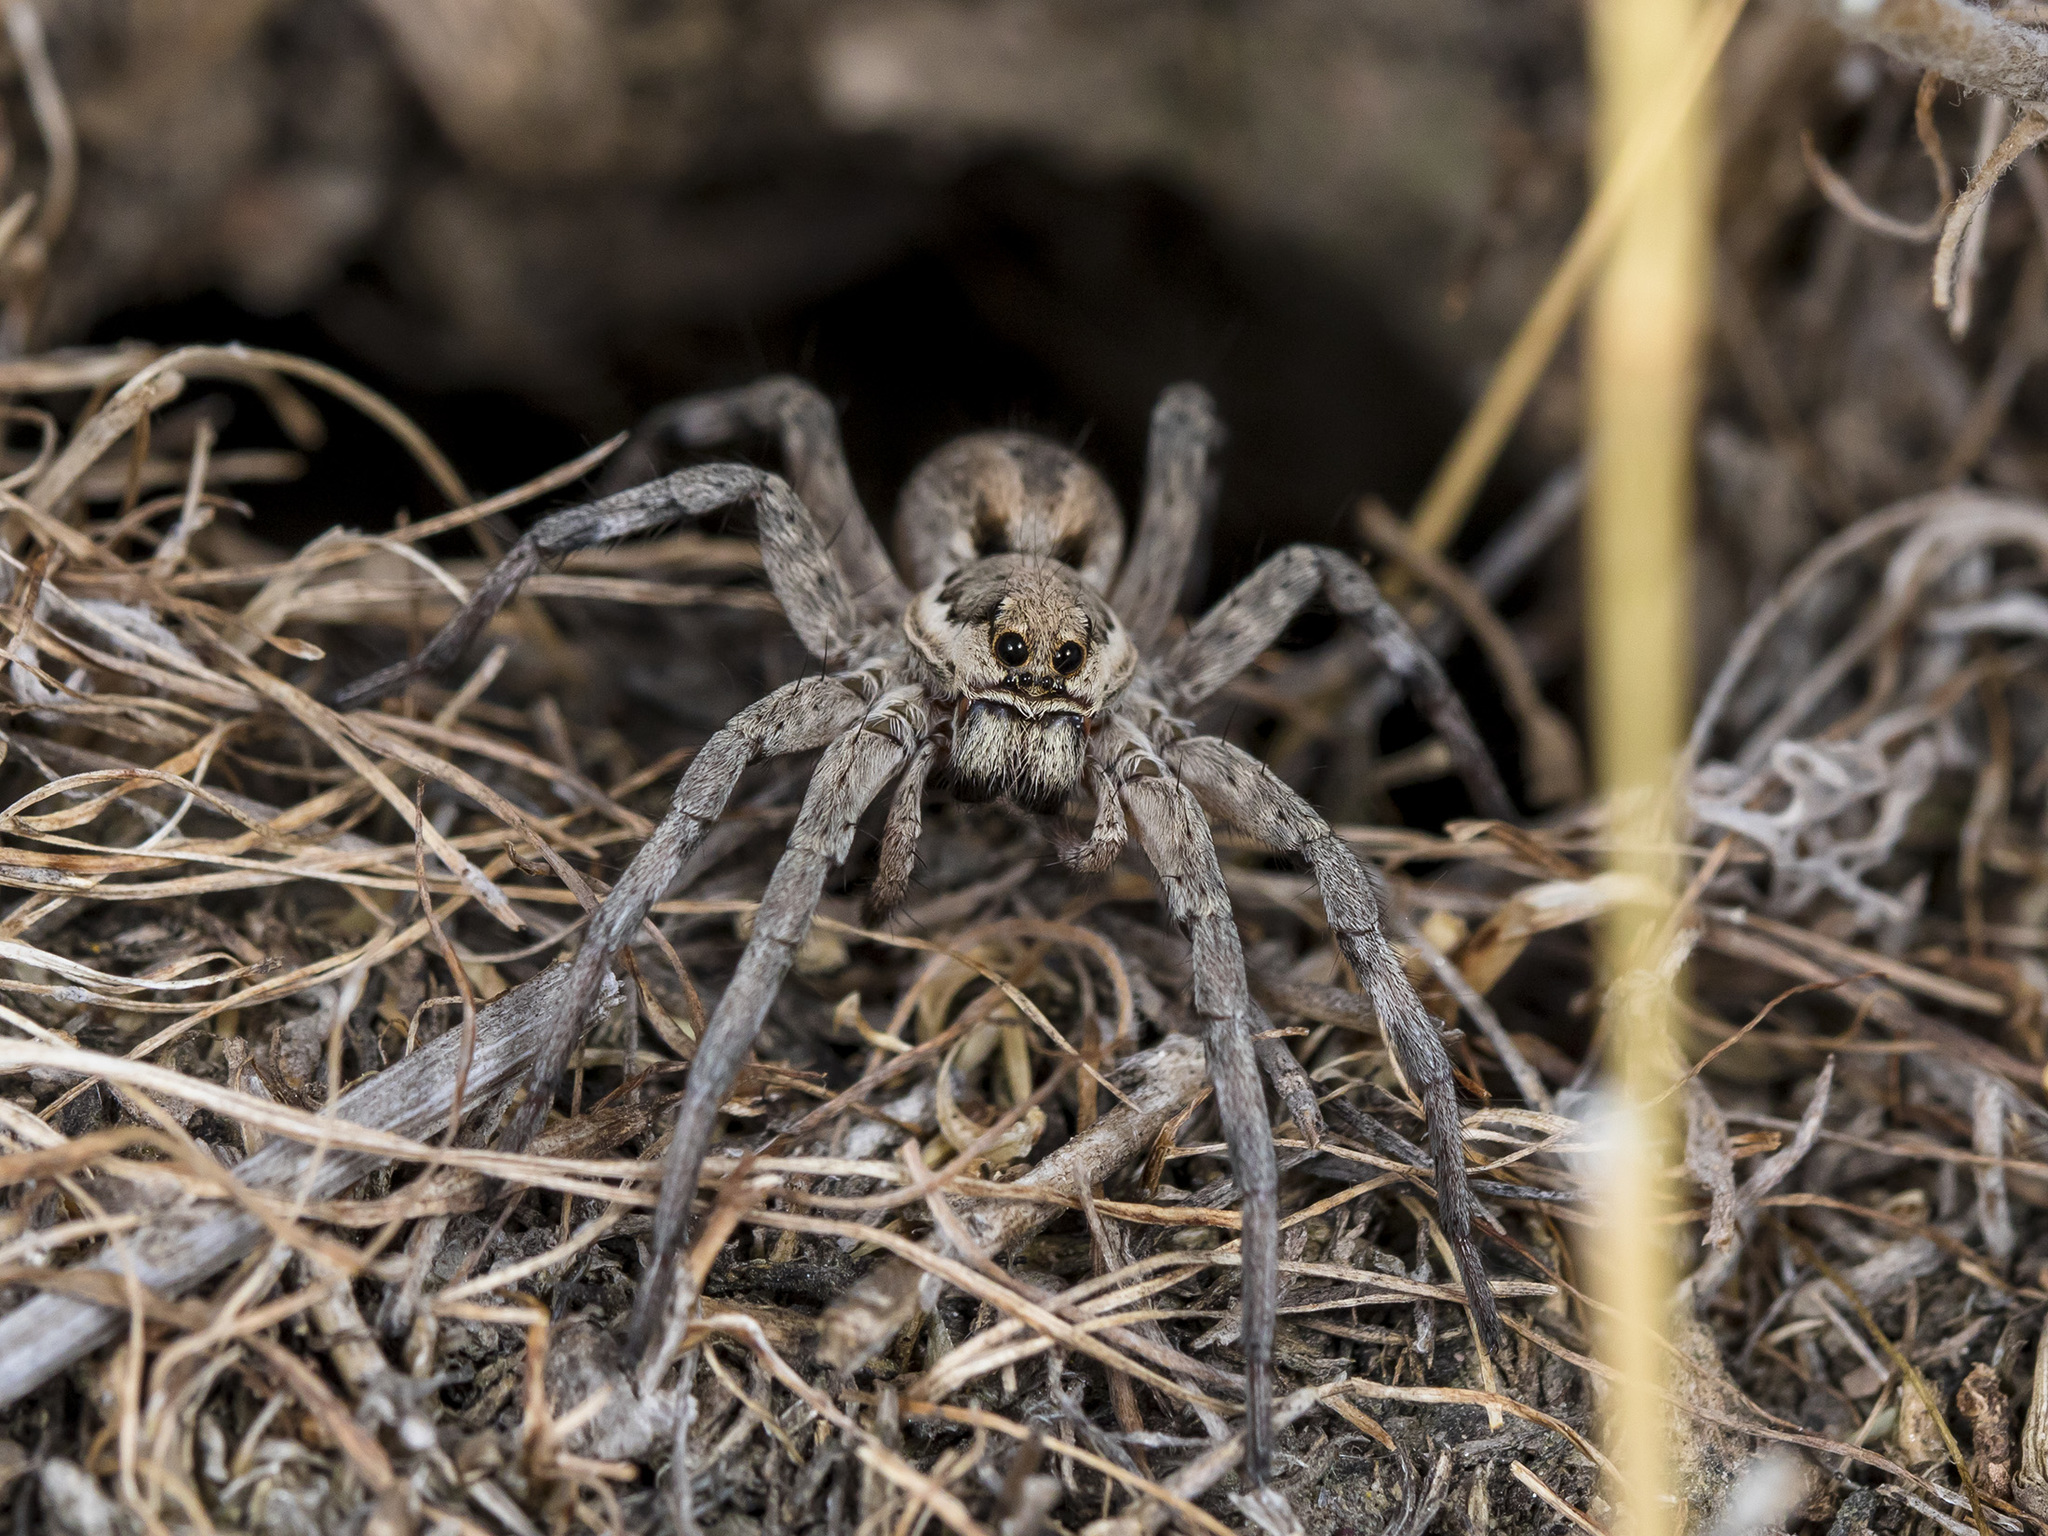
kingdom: Animalia
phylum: Arthropoda
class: Arachnida
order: Araneae
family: Lycosidae
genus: Lycosa
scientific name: Lycosa praegrandis
